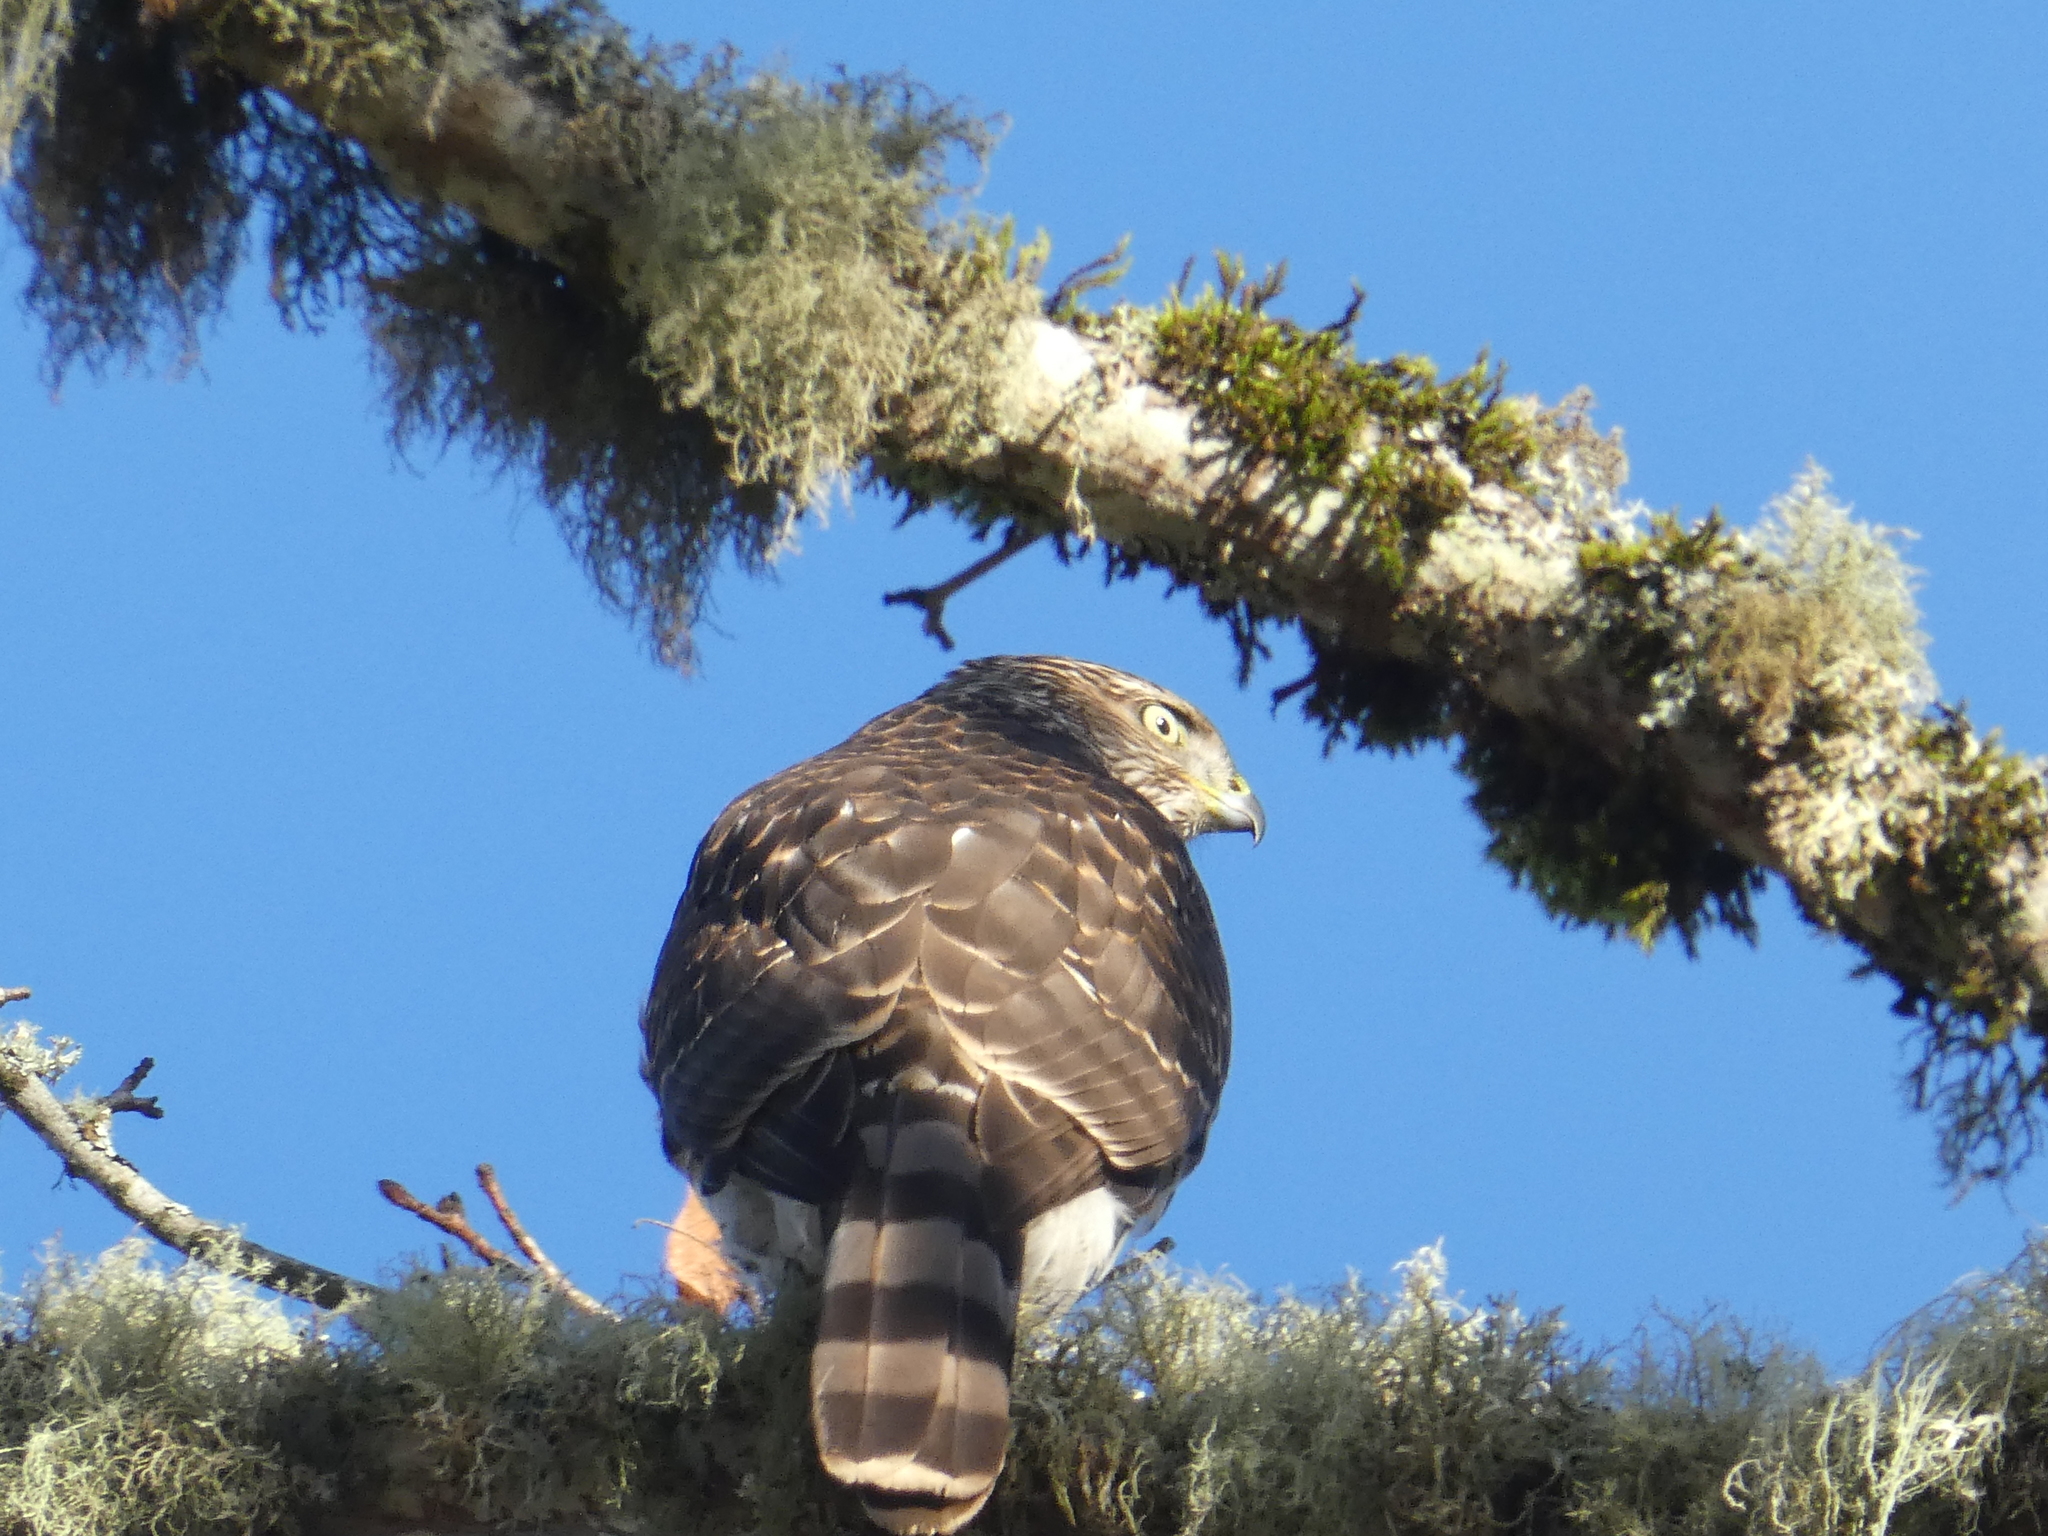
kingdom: Animalia
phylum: Chordata
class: Aves
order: Accipitriformes
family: Accipitridae
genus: Accipiter
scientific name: Accipiter cooperii
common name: Cooper's hawk
